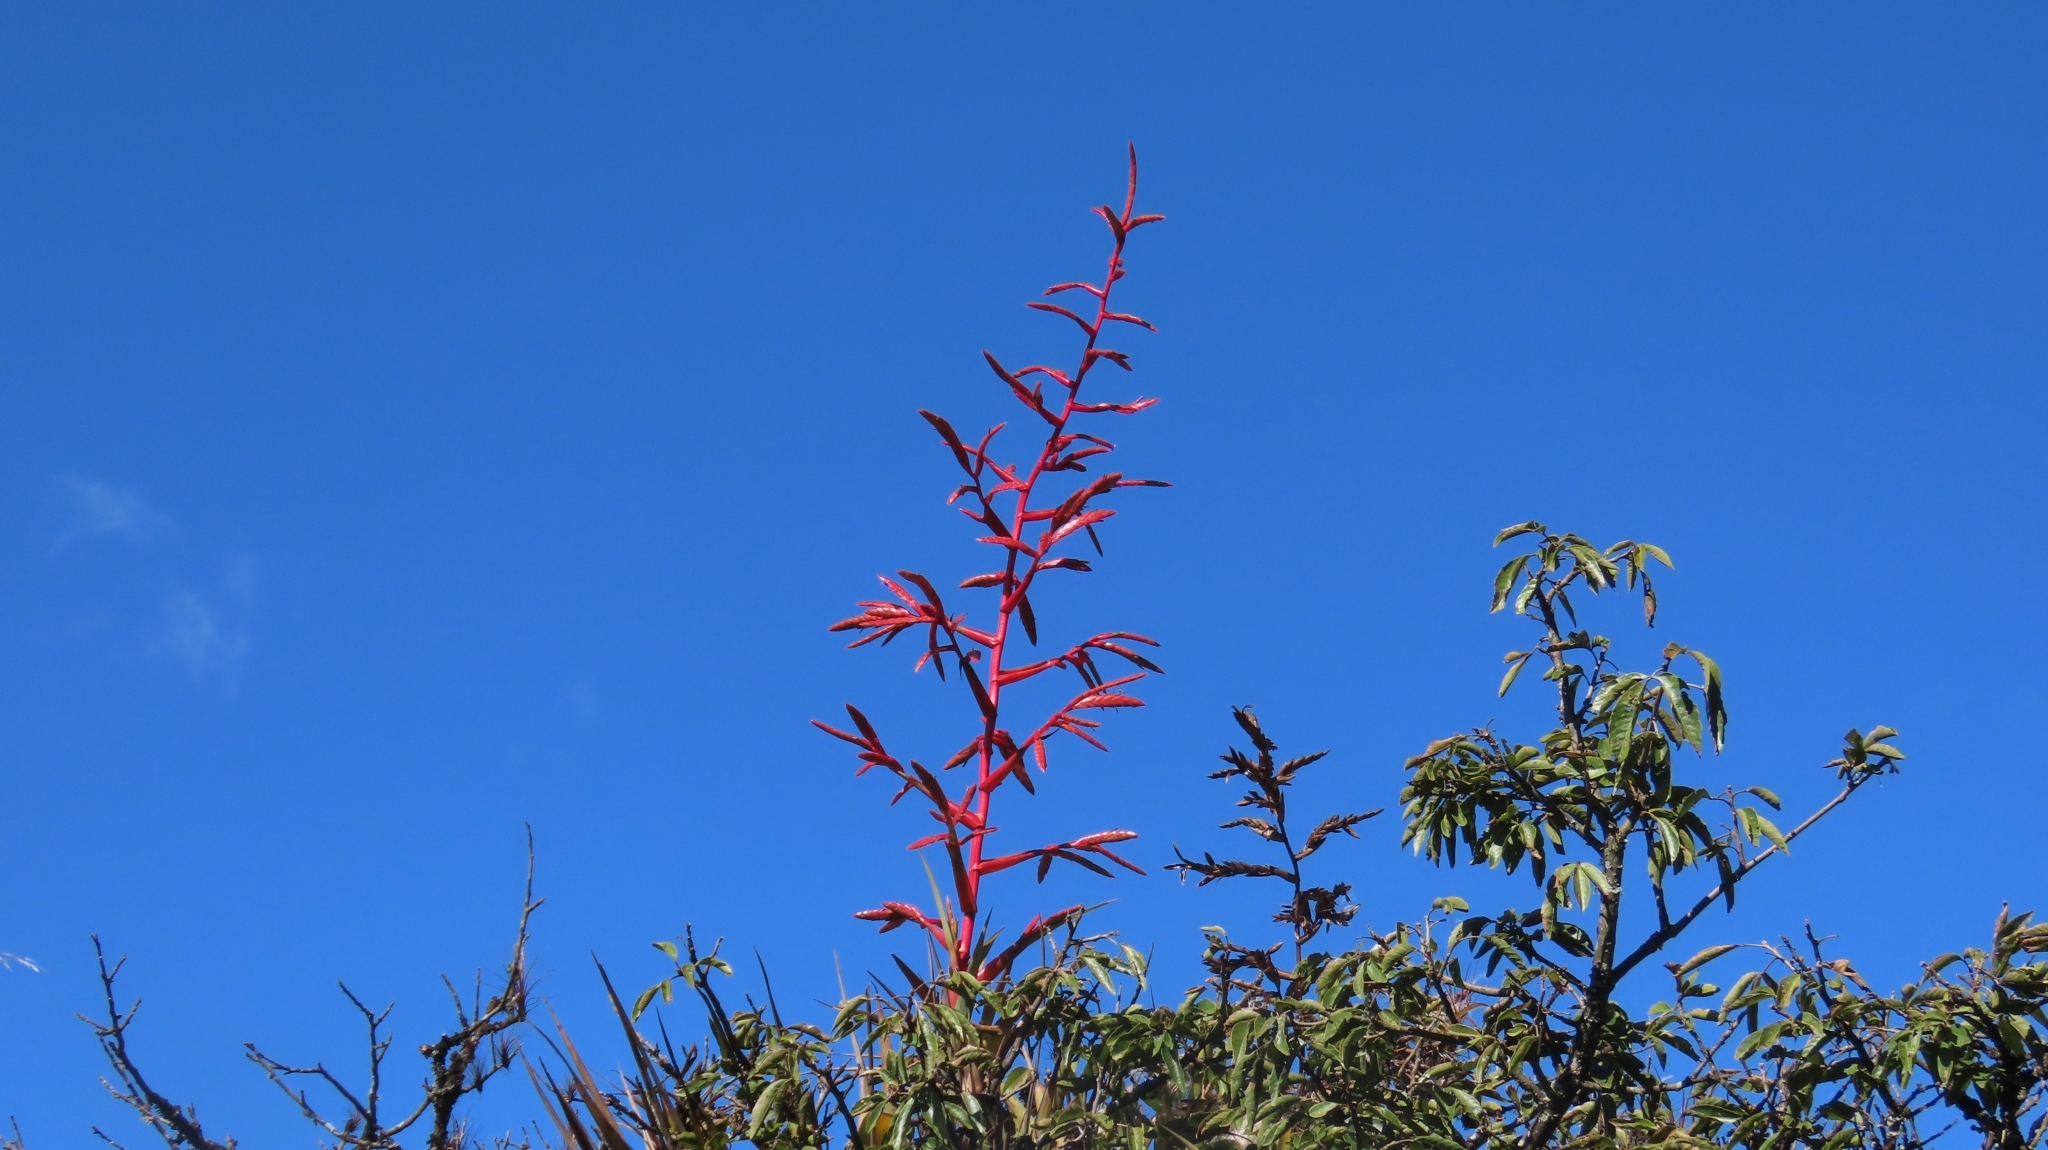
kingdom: Plantae
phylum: Tracheophyta
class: Liliopsida
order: Poales
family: Bromeliaceae
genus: Tillandsia
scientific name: Tillandsia tovarensis
